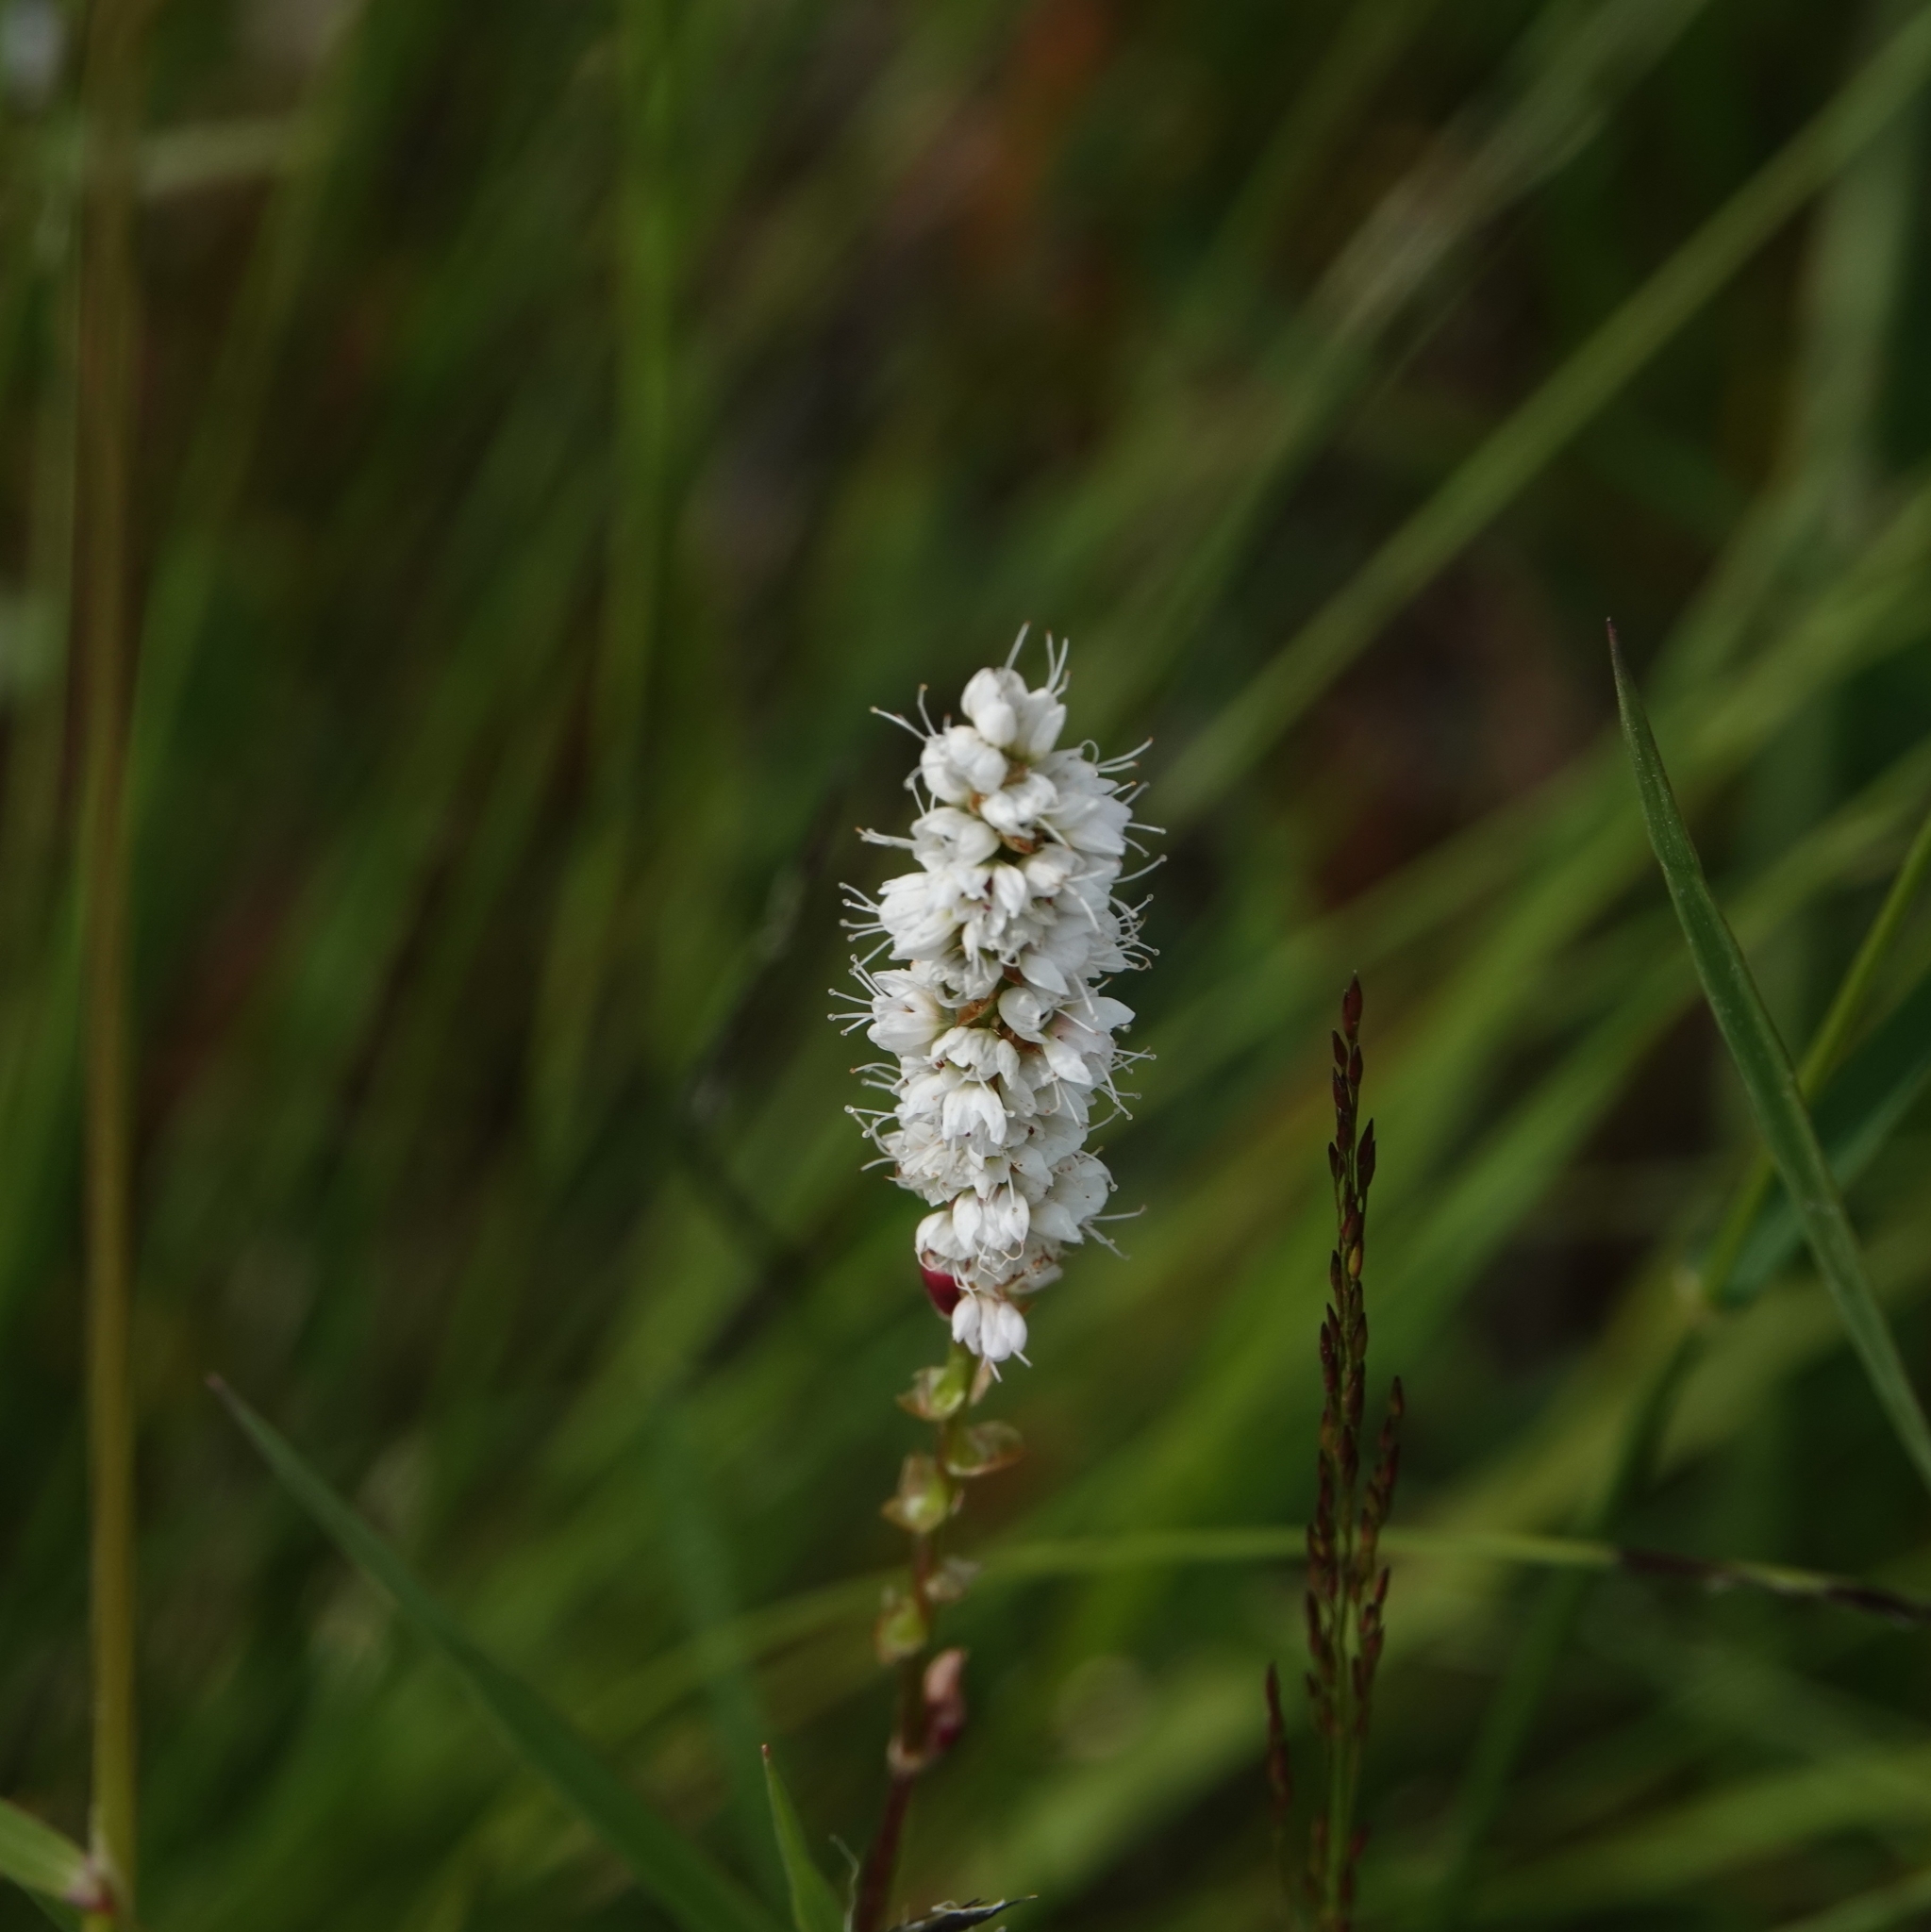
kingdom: Plantae
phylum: Tracheophyta
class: Magnoliopsida
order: Caryophyllales
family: Polygonaceae
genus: Bistorta
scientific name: Bistorta vivipara
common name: Alpine bistort
